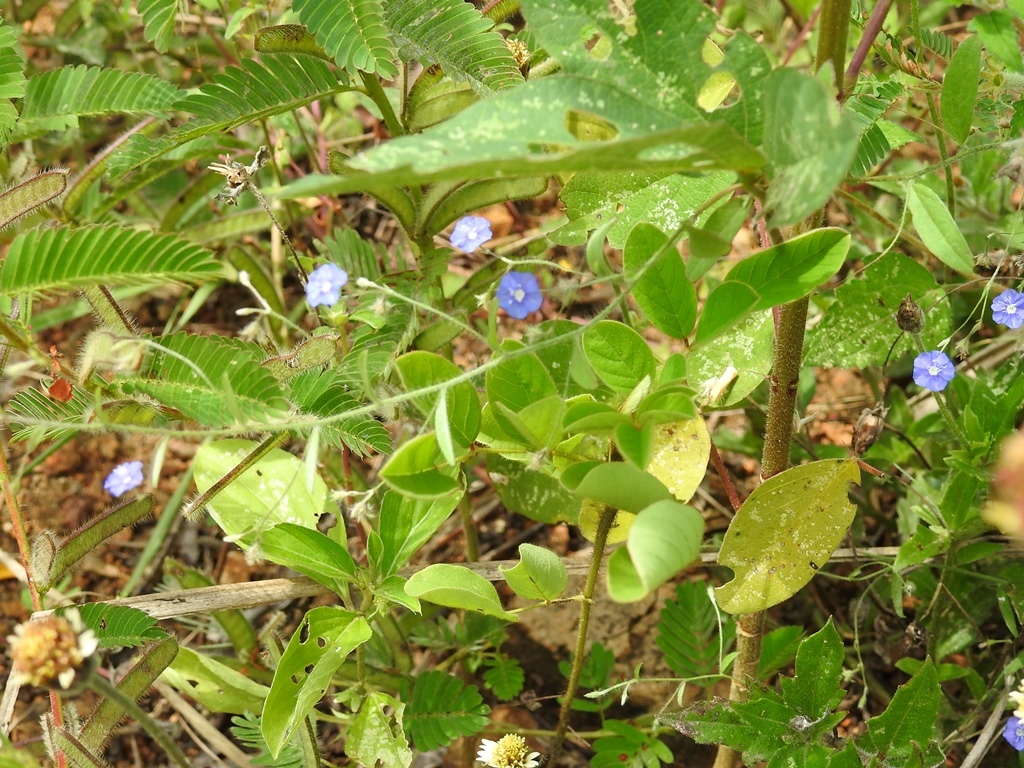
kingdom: Plantae
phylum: Tracheophyta
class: Magnoliopsida
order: Solanales
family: Convolvulaceae
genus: Evolvulus
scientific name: Evolvulus alsinoides
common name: Slender dwarf morning-glory
